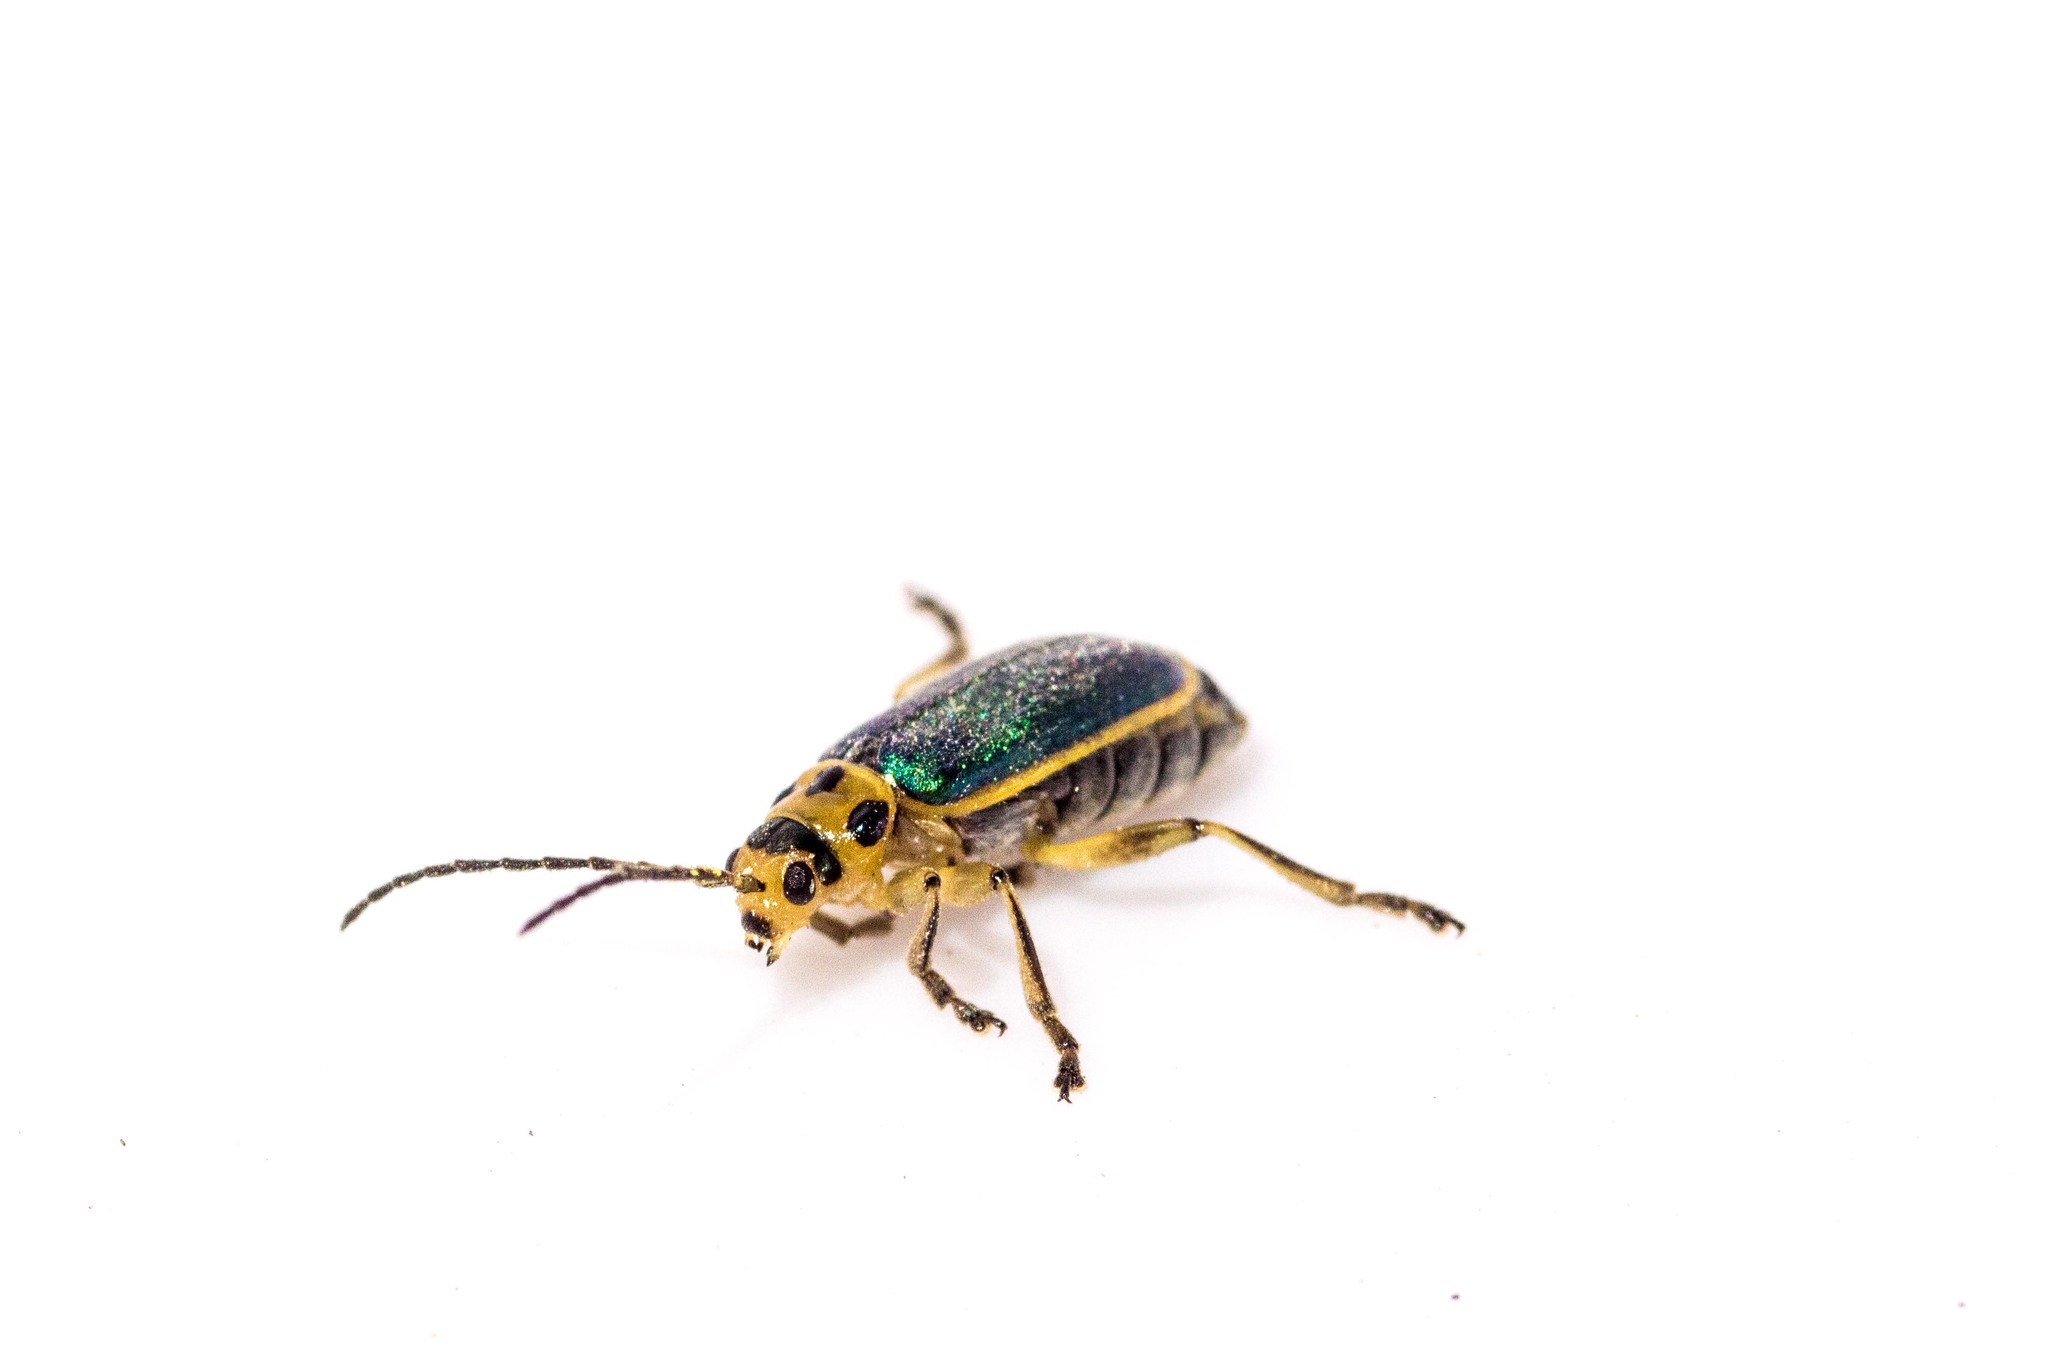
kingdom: Animalia
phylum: Arthropoda
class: Insecta
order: Coleoptera
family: Chrysomelidae
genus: Trirhabda
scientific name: Trirhabda flavolimbata
